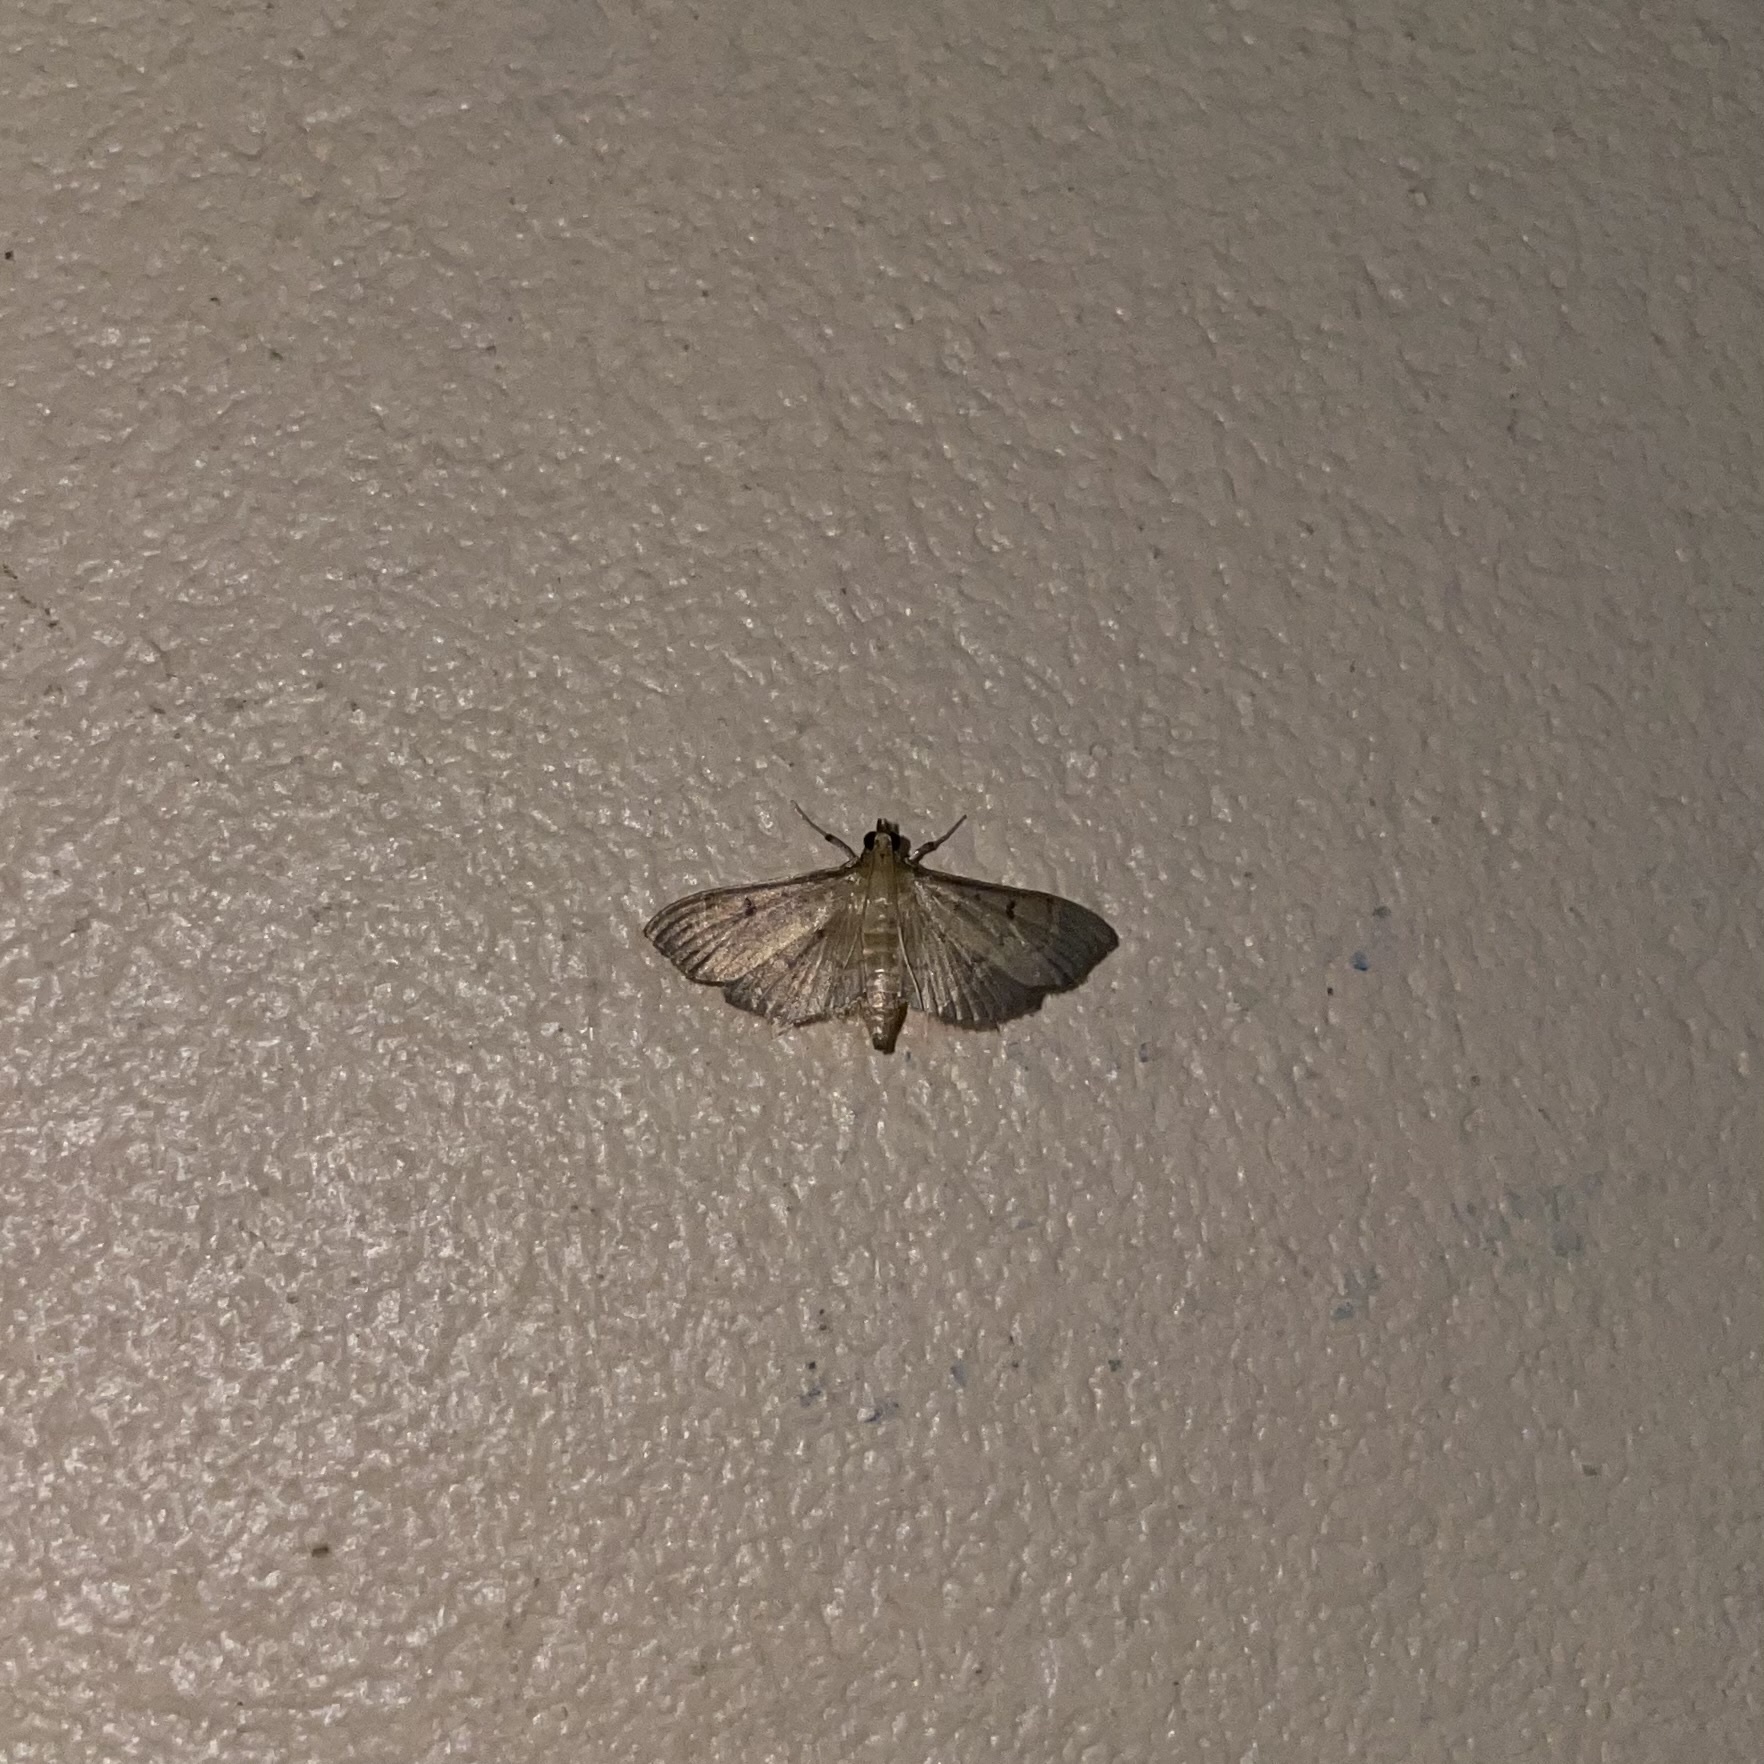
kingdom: Animalia
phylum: Arthropoda
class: Insecta
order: Lepidoptera
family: Crambidae
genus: Herpetogramma
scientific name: Herpetogramma phaeopteralis
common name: Dusky herpetogramma moth
